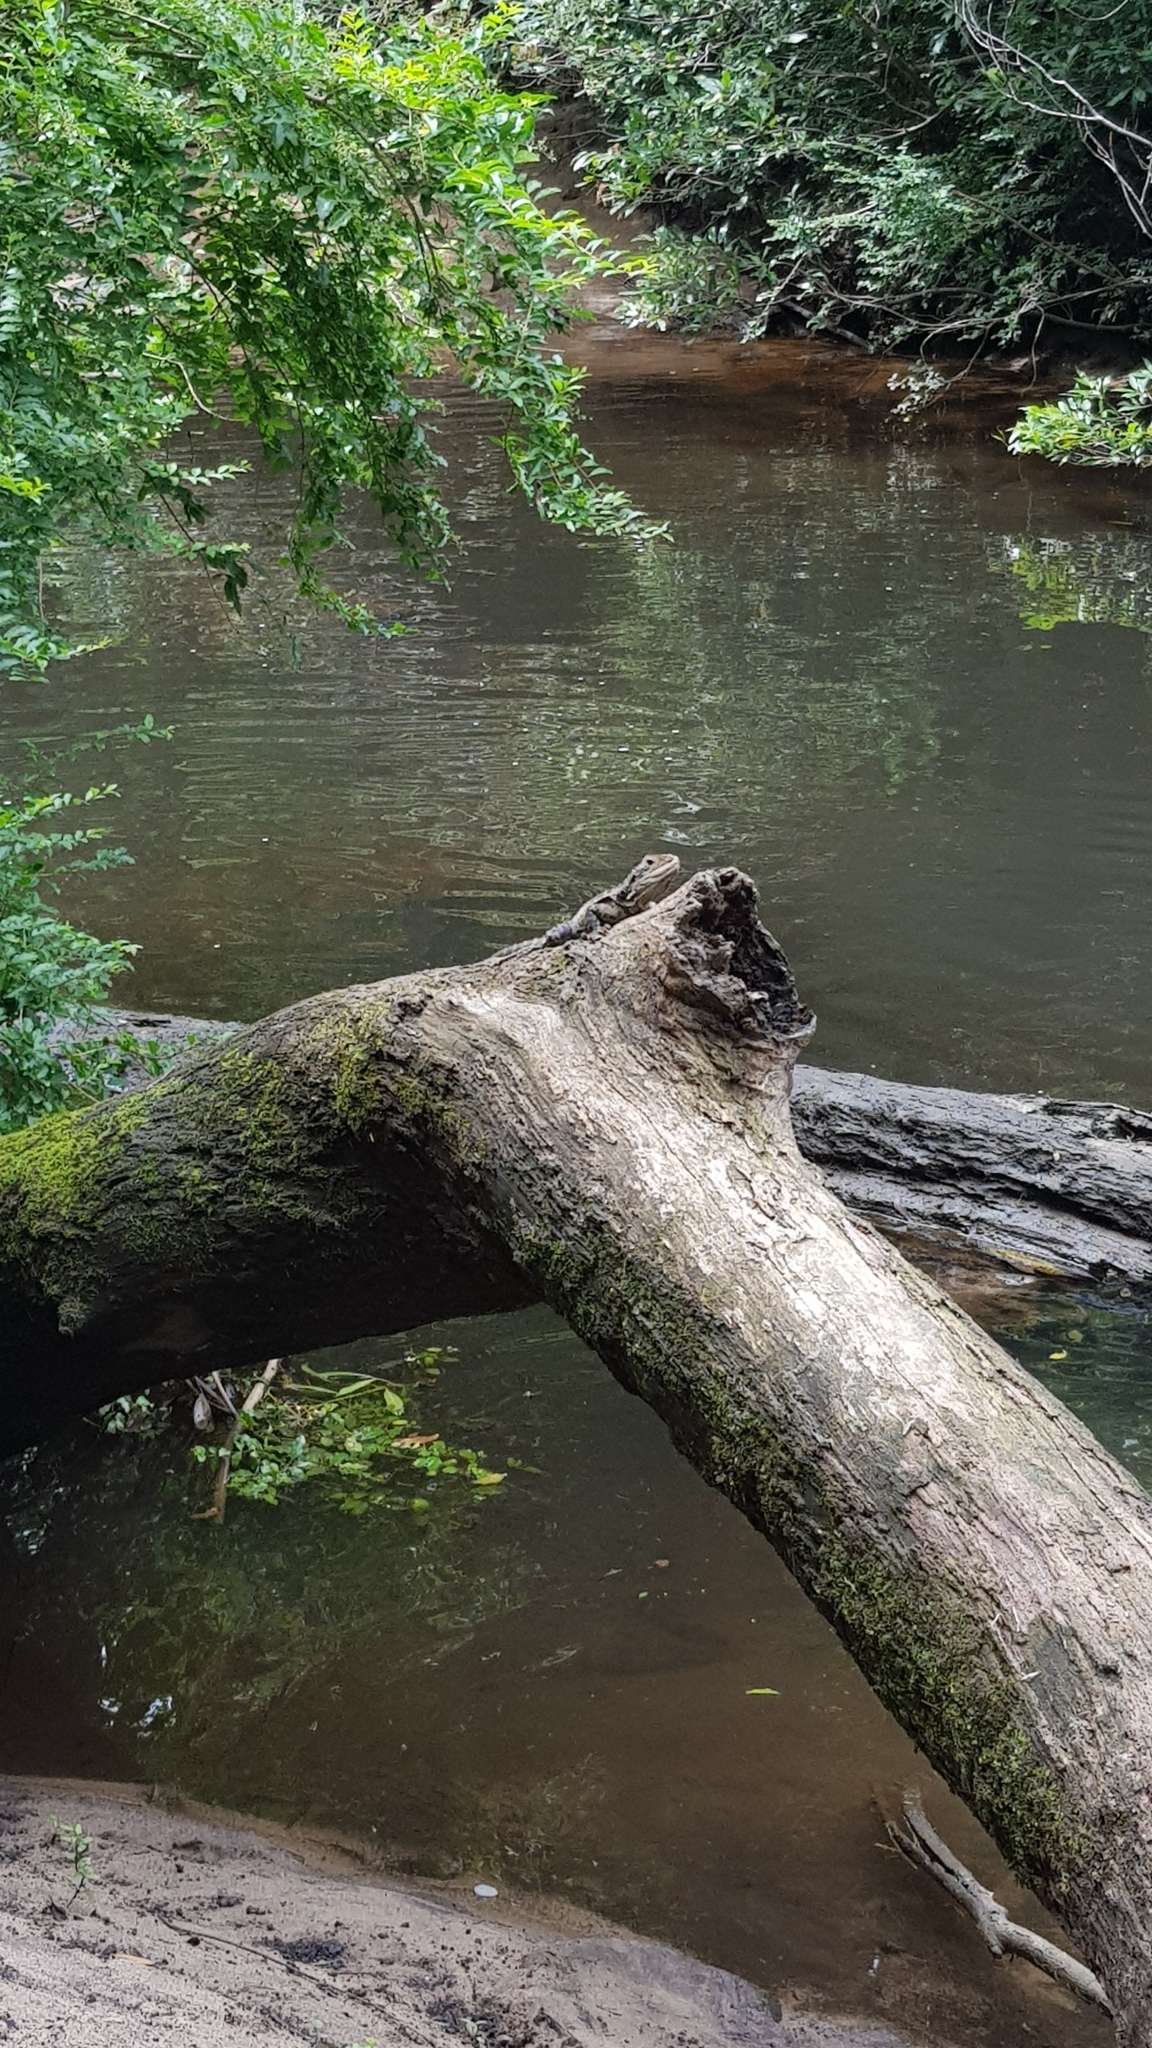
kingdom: Animalia
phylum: Chordata
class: Squamata
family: Agamidae
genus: Intellagama
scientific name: Intellagama lesueurii
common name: Eastern water dragon
